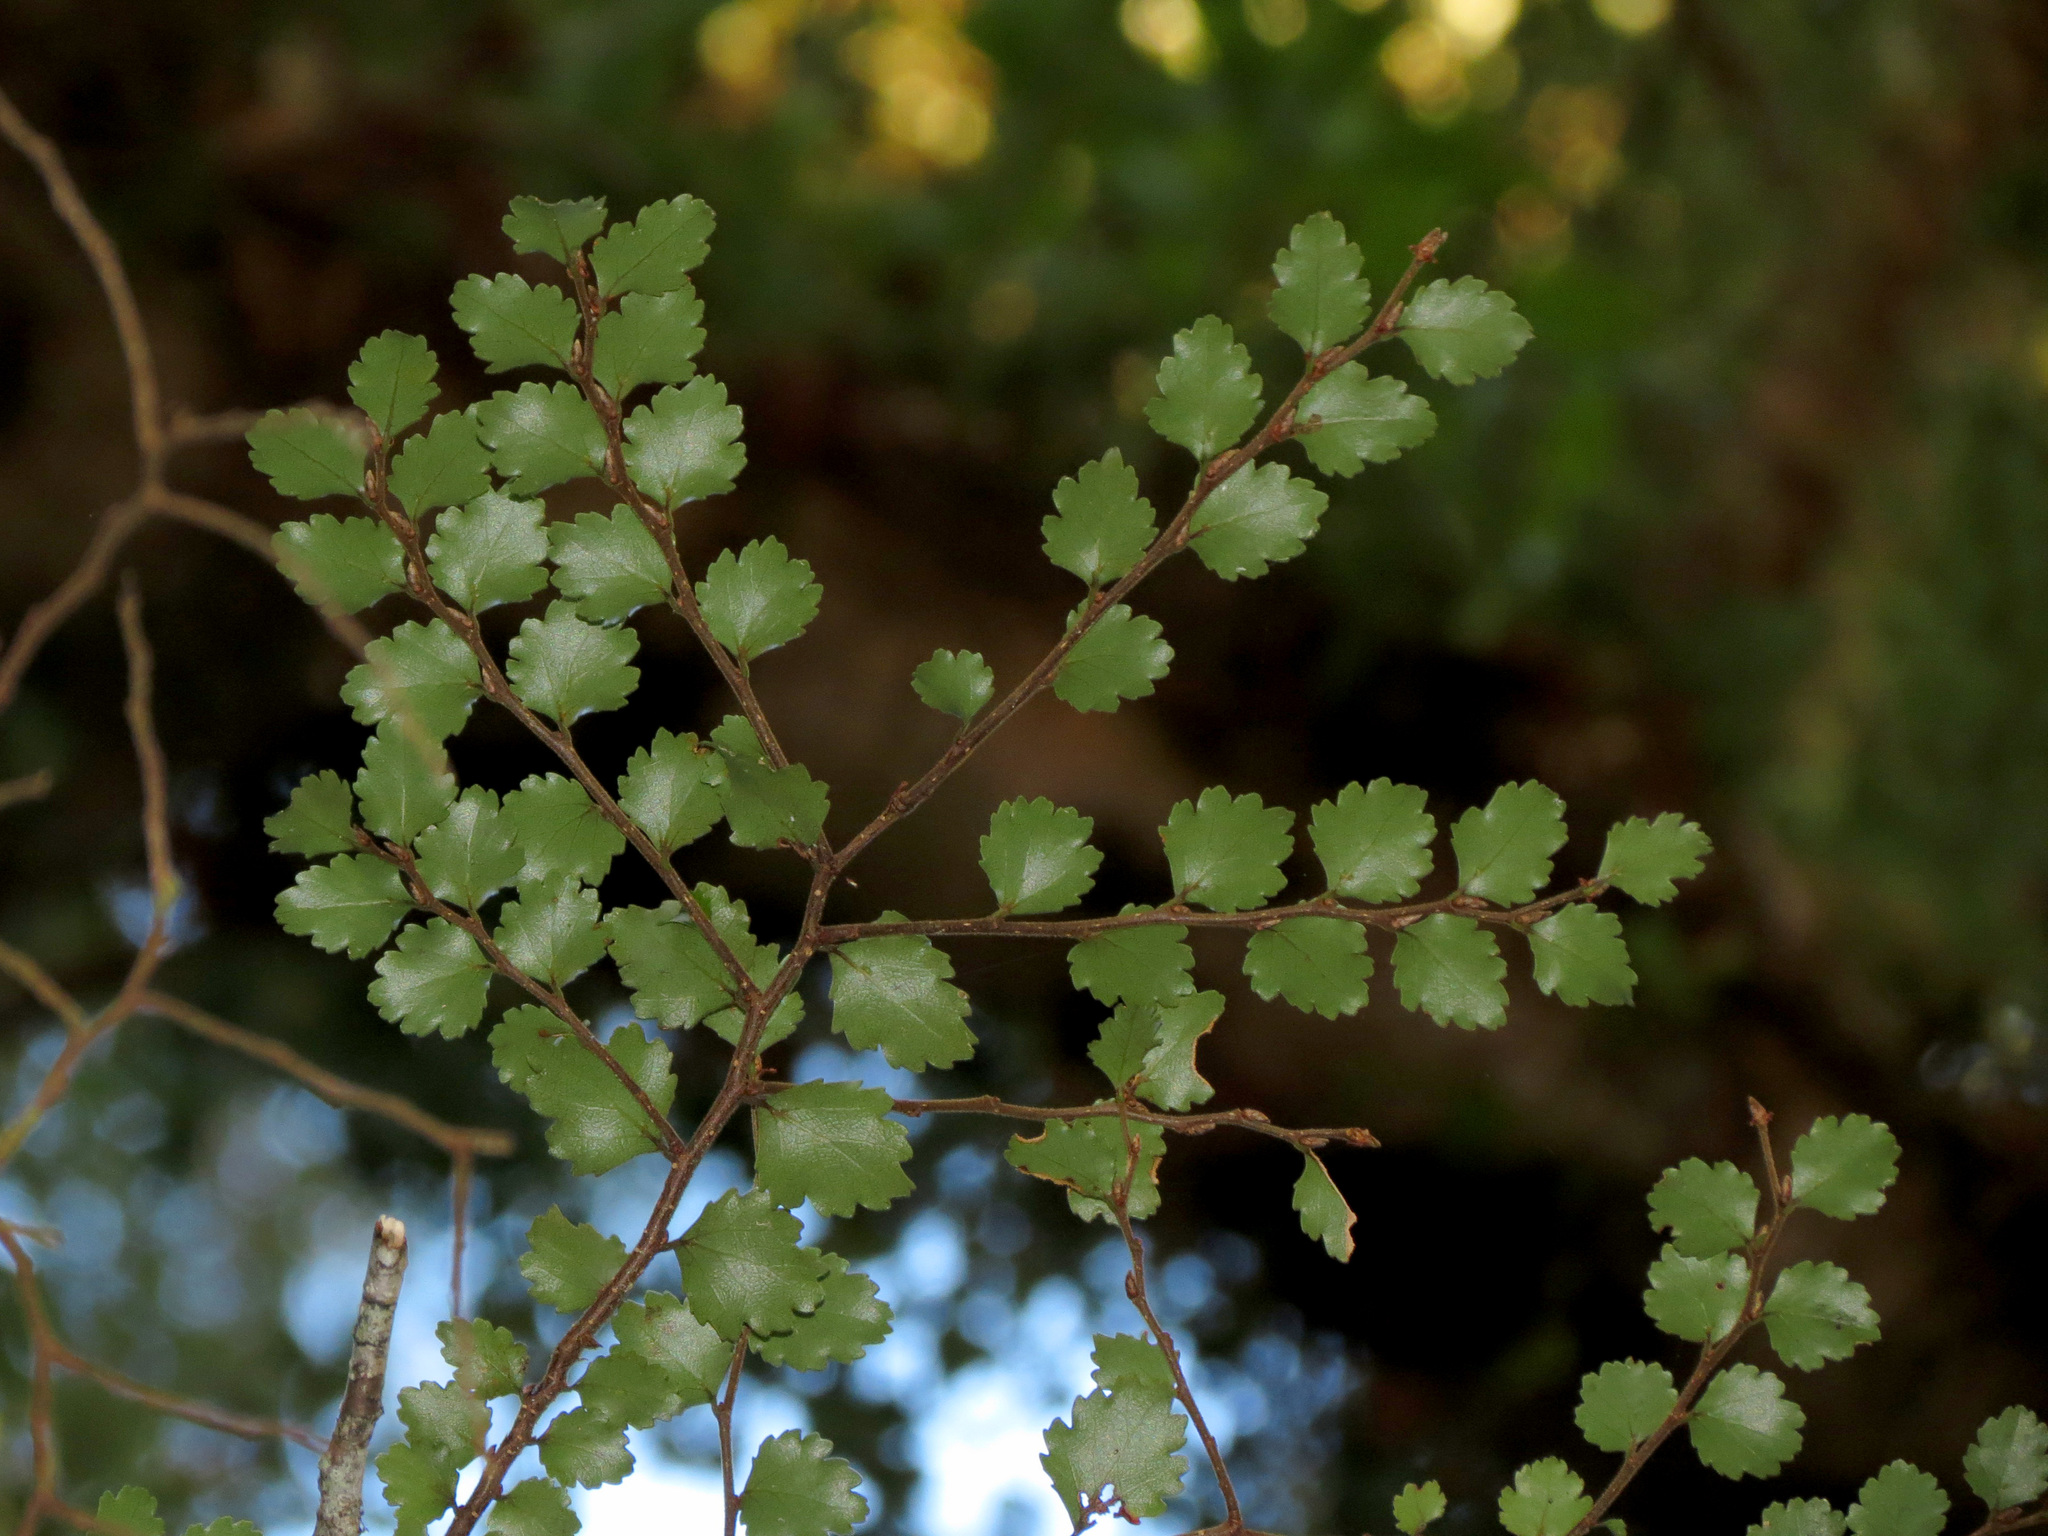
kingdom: Plantae
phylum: Tracheophyta
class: Magnoliopsida
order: Fagales
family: Nothofagaceae
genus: Nothofagus
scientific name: Nothofagus menziesii
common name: Silver beech
